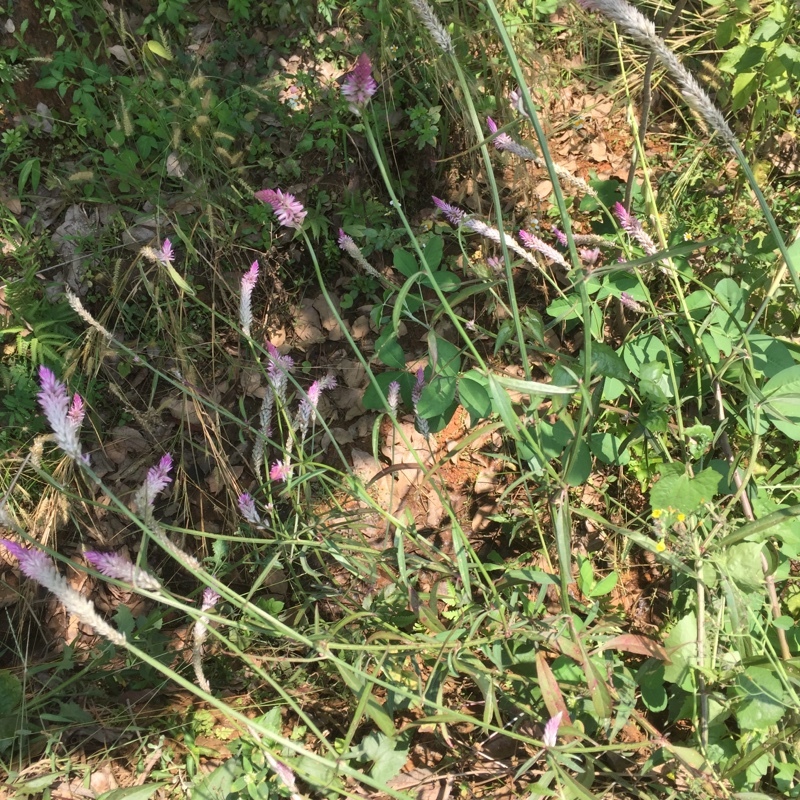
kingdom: Plantae
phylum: Tracheophyta
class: Magnoliopsida
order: Caryophyllales
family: Amaranthaceae
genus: Celosia
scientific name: Celosia argentea
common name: Feather cockscomb
